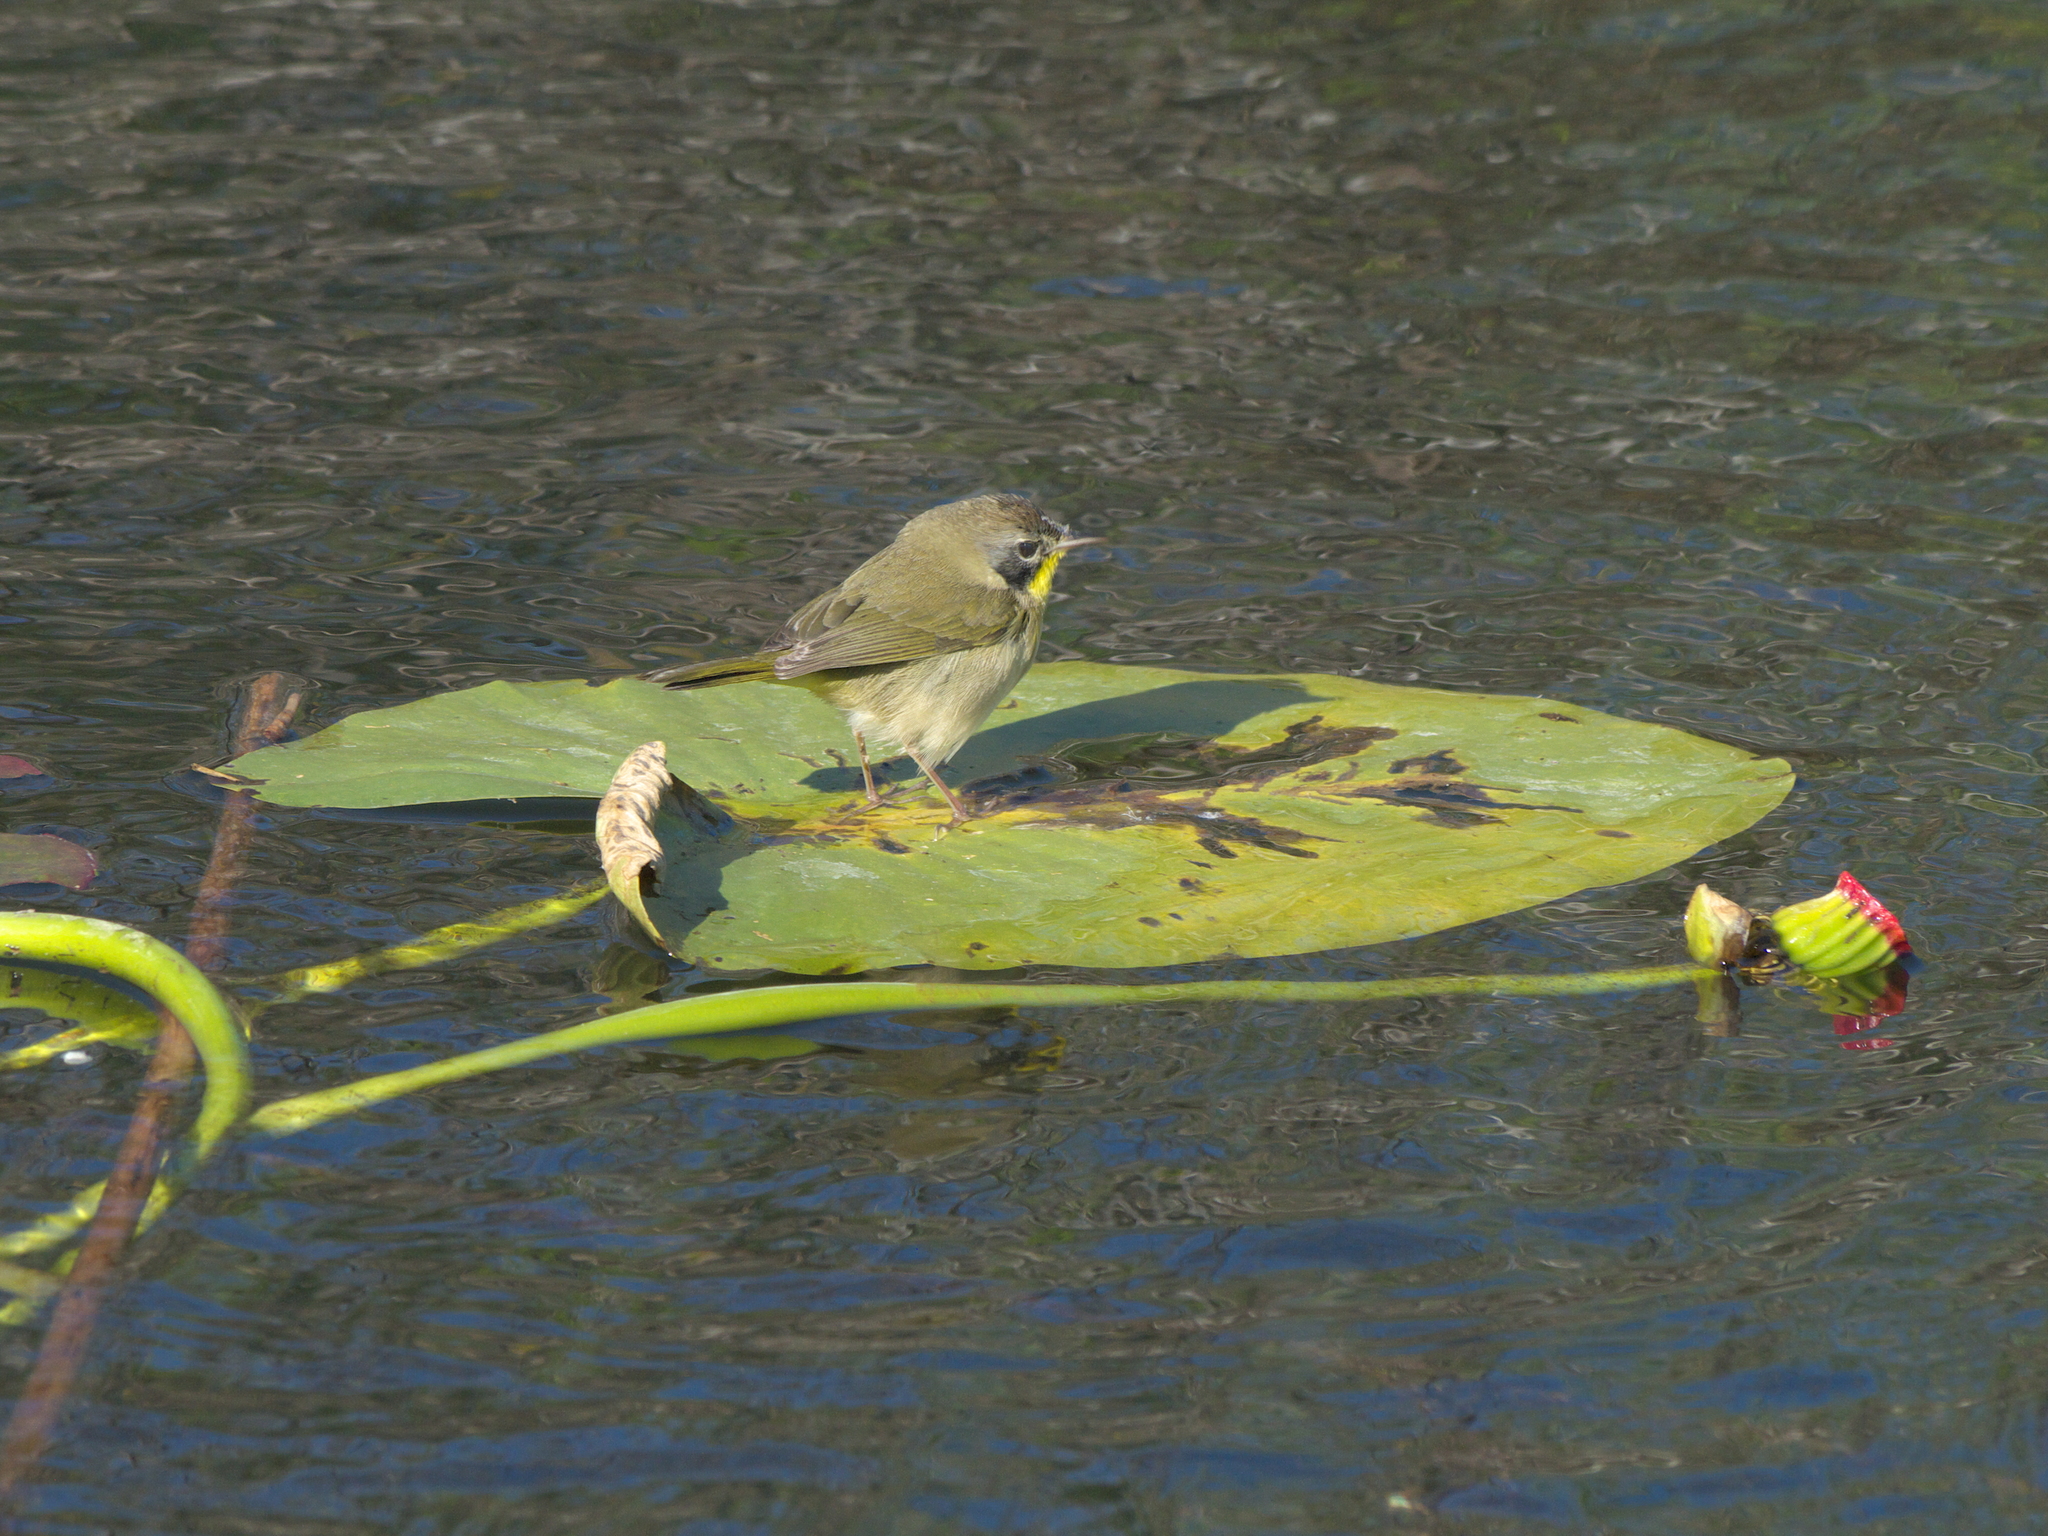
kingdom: Animalia
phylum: Chordata
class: Aves
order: Passeriformes
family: Parulidae
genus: Geothlypis
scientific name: Geothlypis trichas
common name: Common yellowthroat
